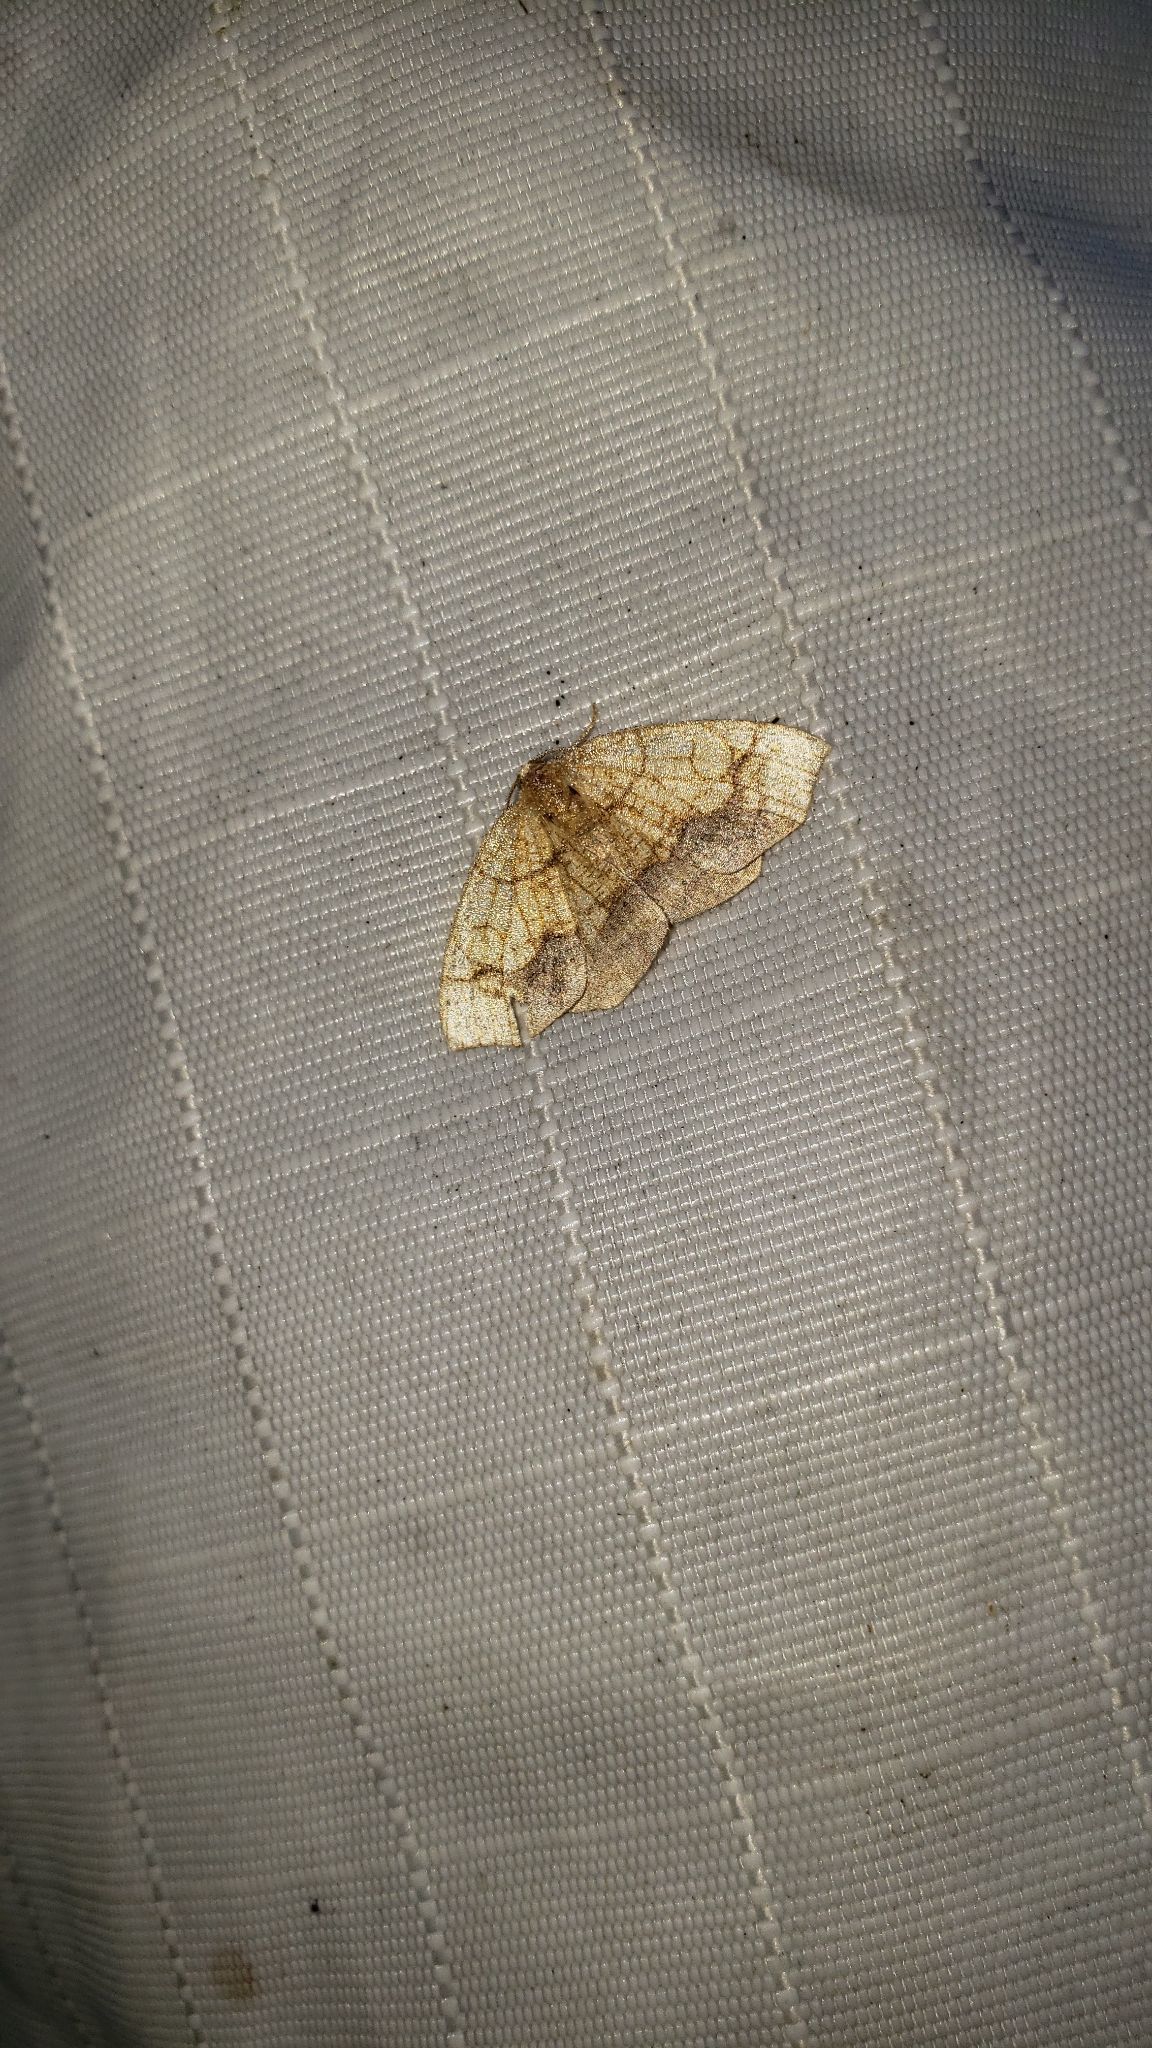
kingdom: Animalia
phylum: Arthropoda
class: Insecta
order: Lepidoptera
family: Geometridae
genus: Nematocampa
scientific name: Nematocampa resistaria
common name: Horned spanworm moth
